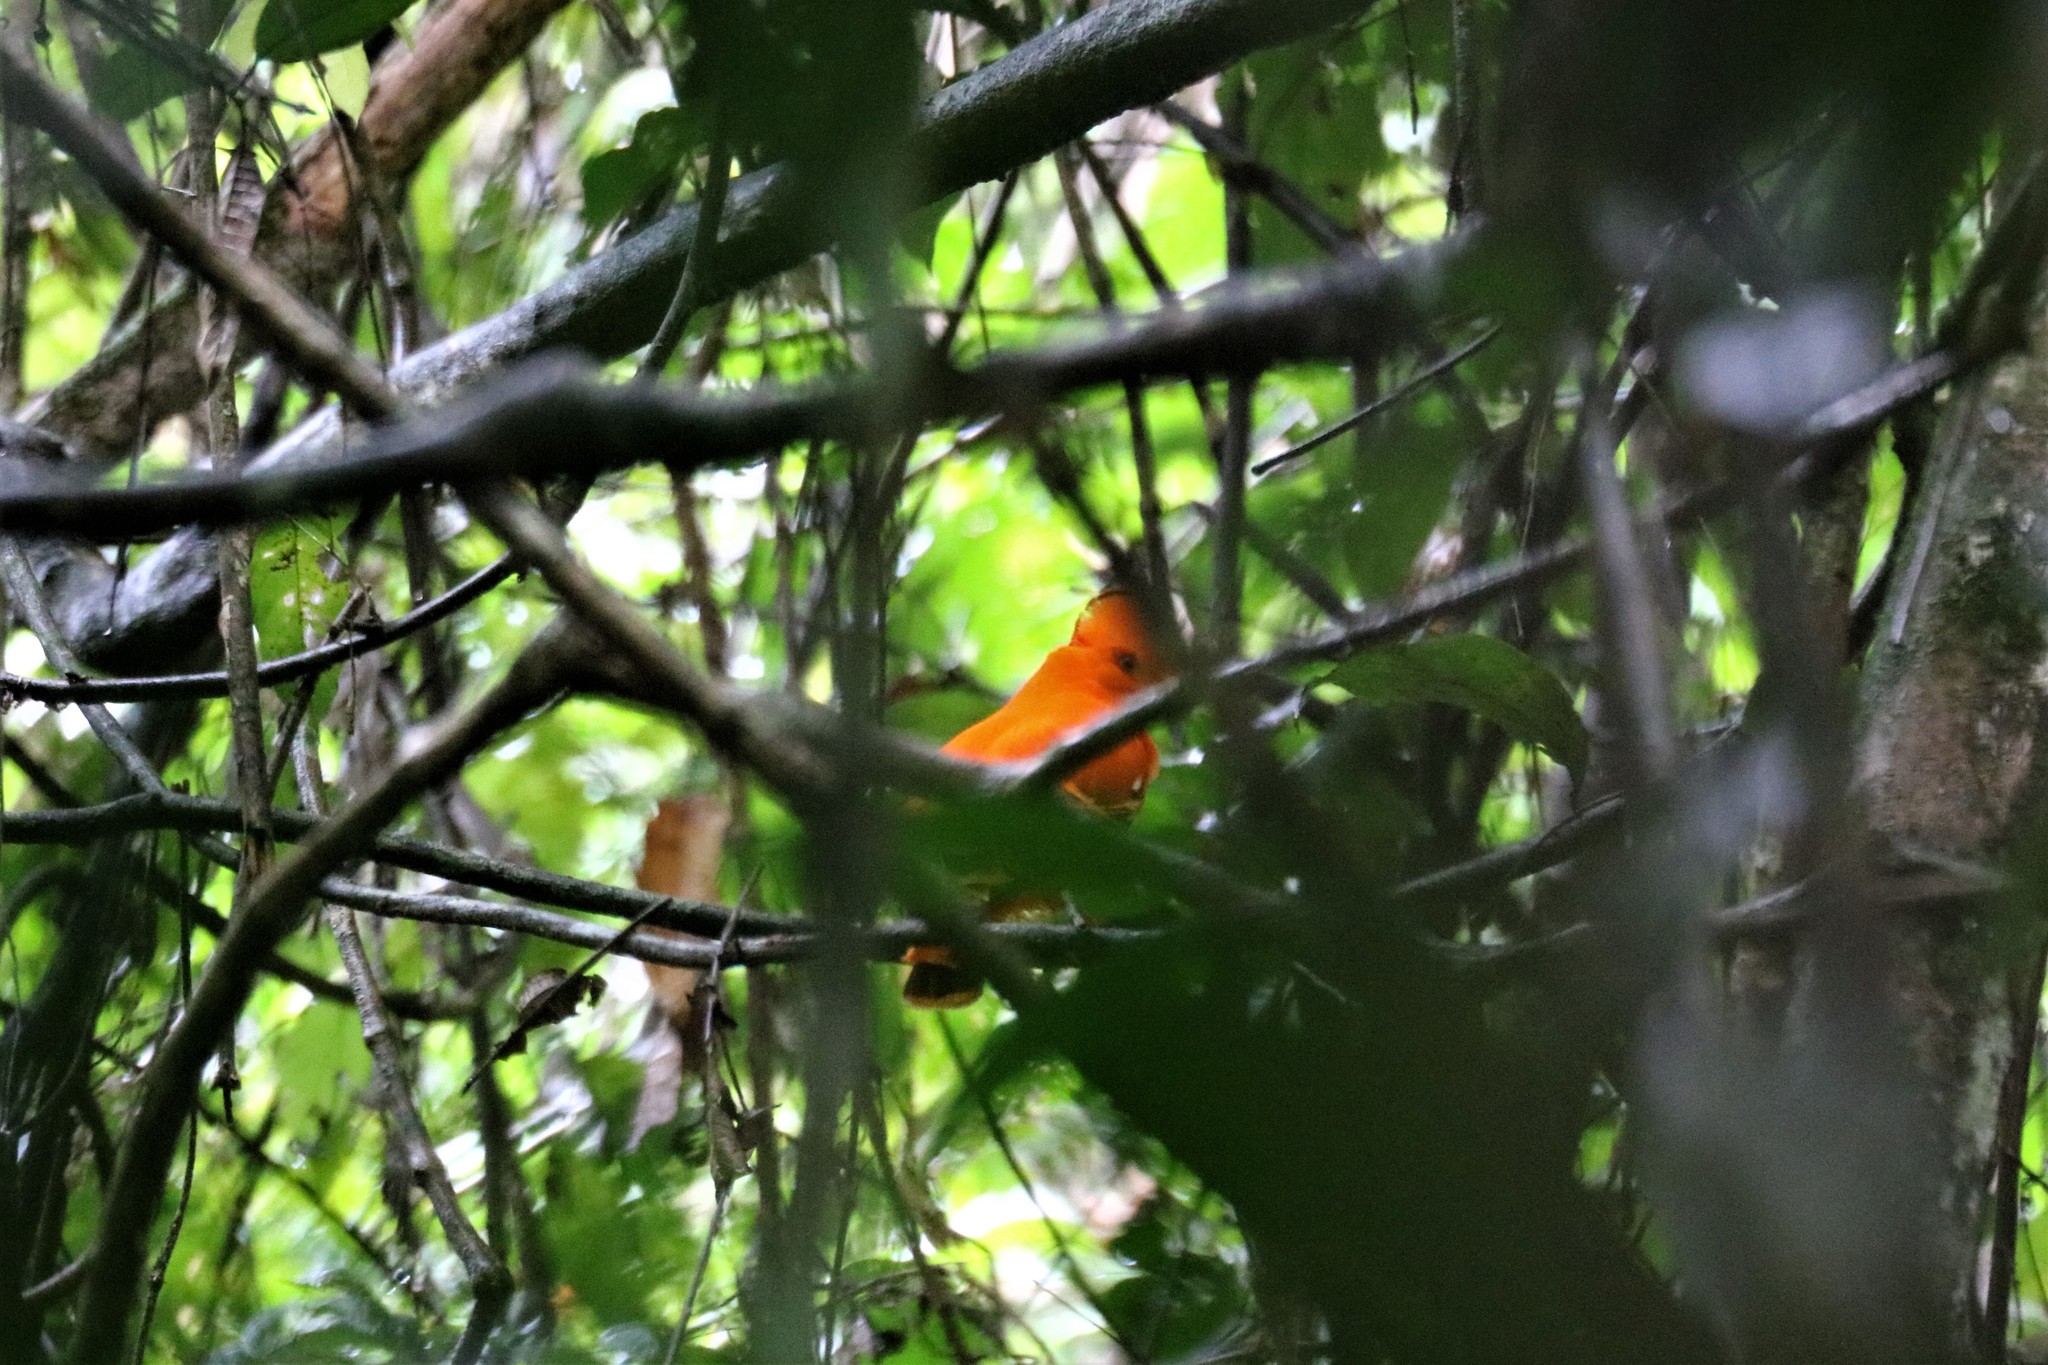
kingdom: Animalia
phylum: Chordata
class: Aves
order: Passeriformes
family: Cotingidae
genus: Rupicola
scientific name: Rupicola rupicola
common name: Guianan cock-of-the-rock
